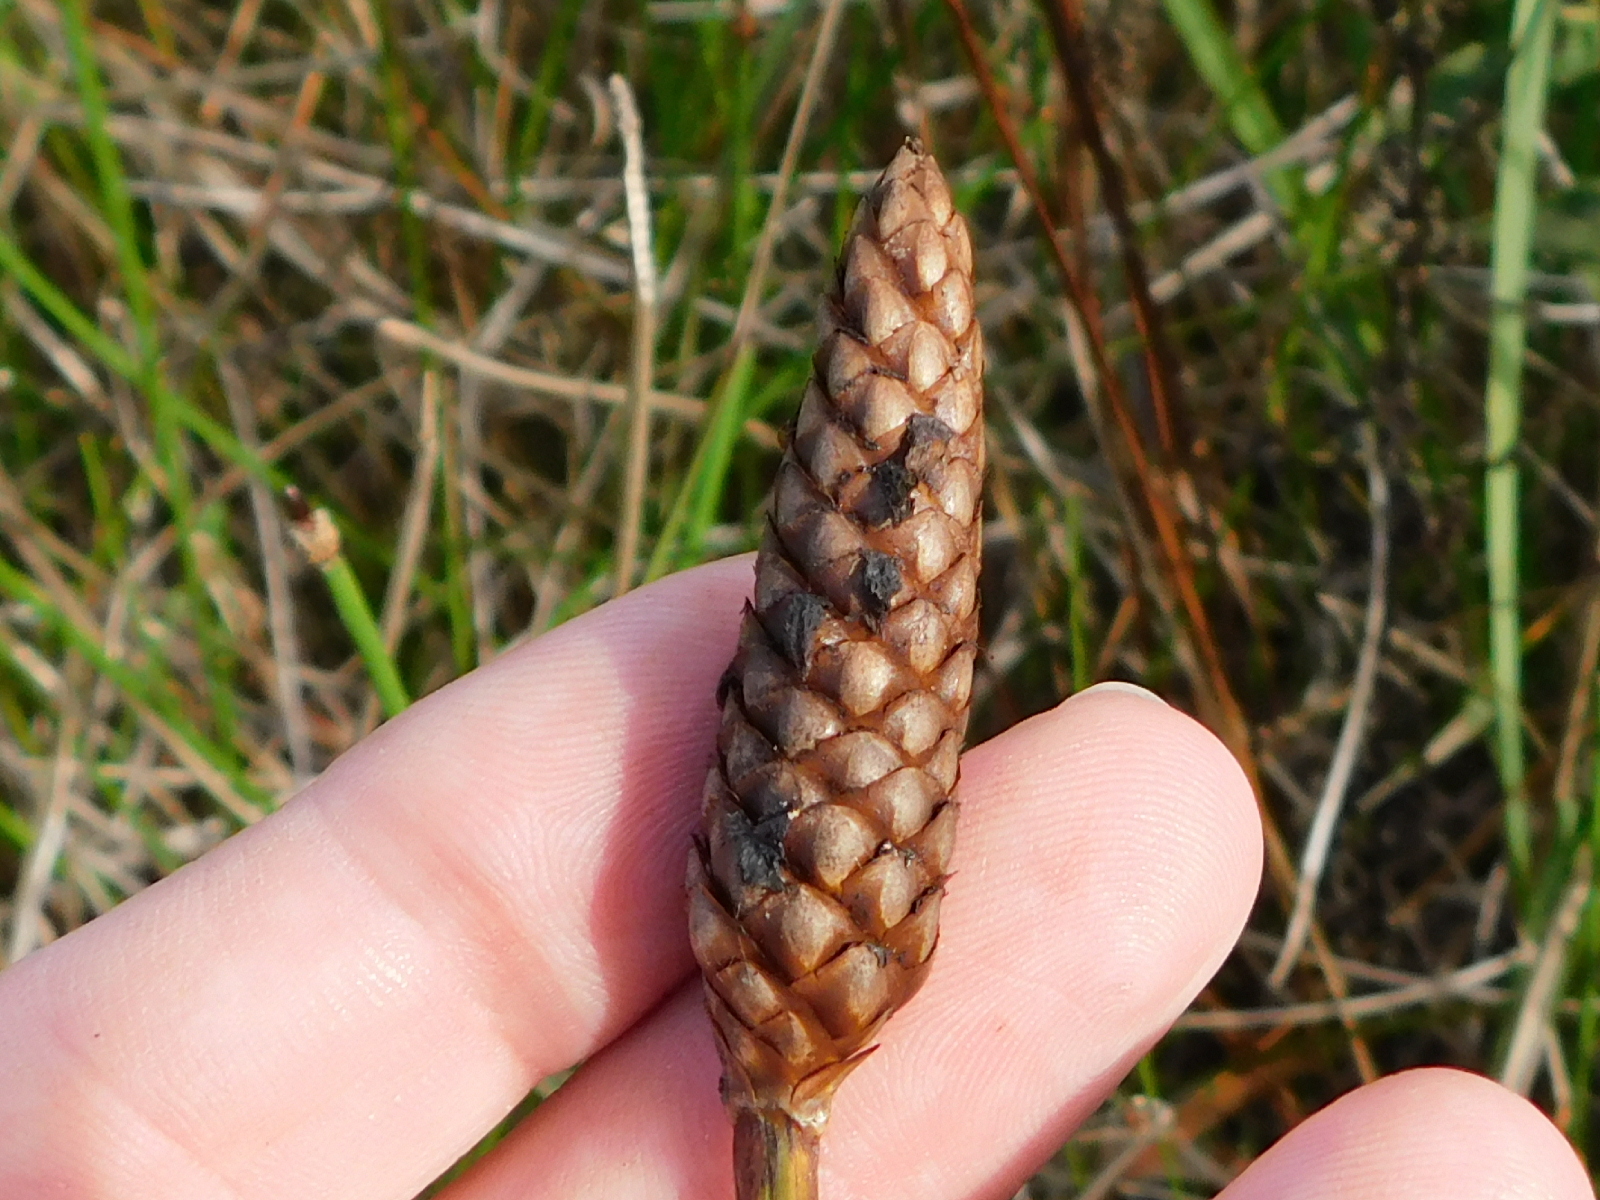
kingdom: Plantae
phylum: Tracheophyta
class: Liliopsida
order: Poales
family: Xyridaceae
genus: Xyris
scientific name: Xyris laxifolia
